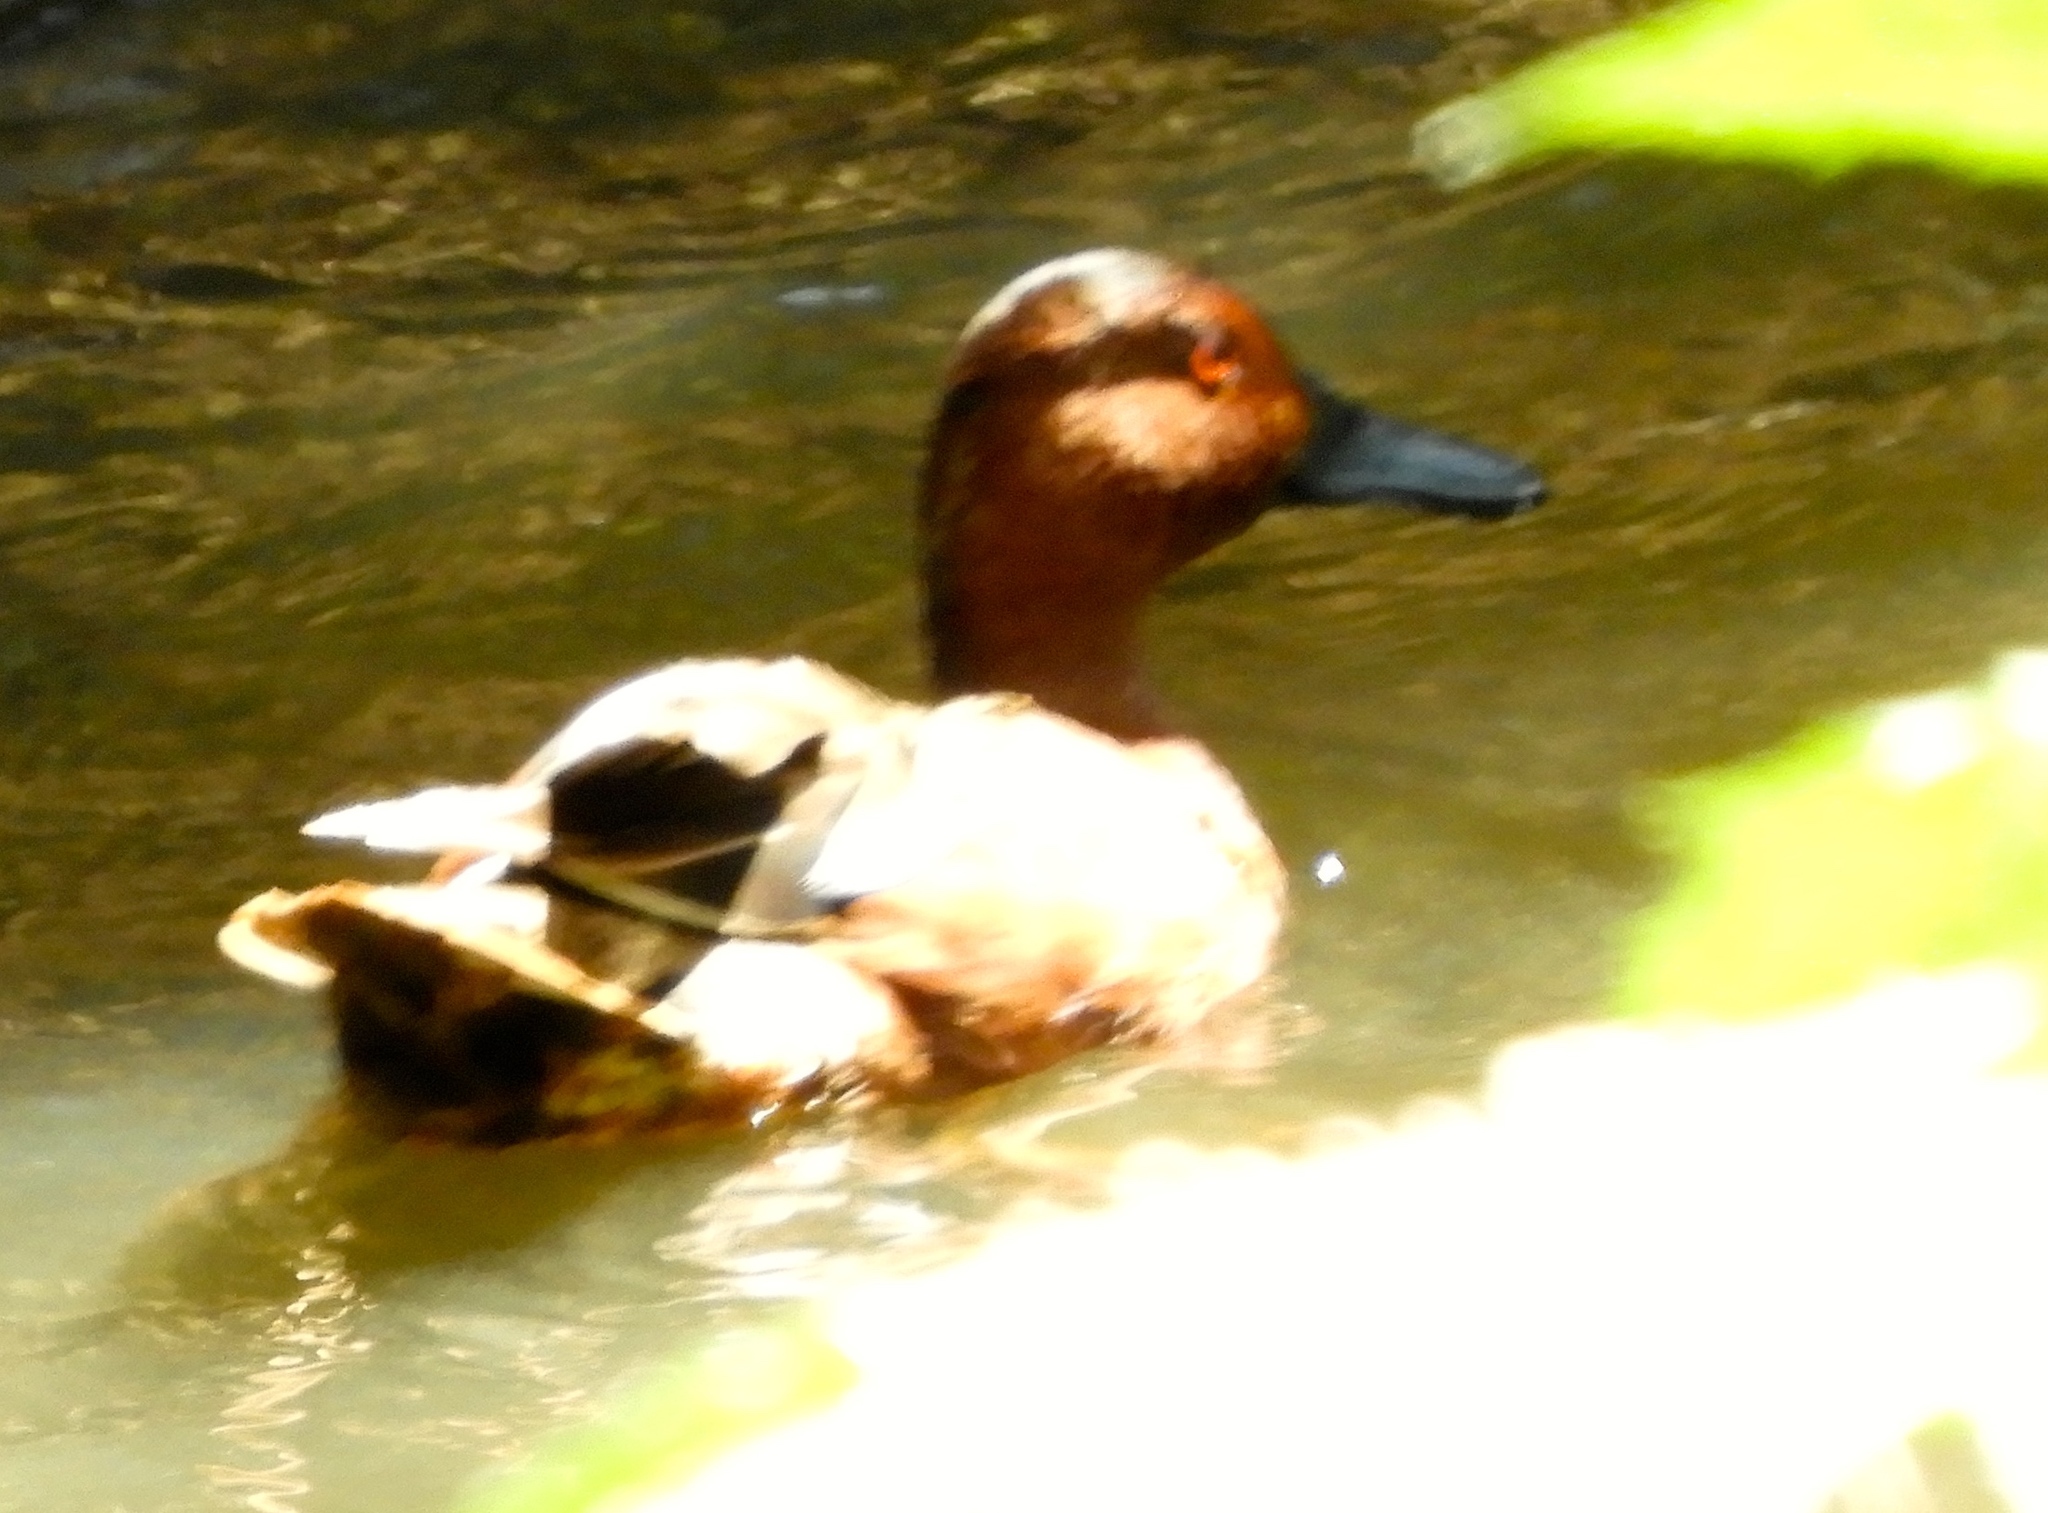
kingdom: Animalia
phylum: Chordata
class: Aves
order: Anseriformes
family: Anatidae
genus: Spatula
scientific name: Spatula cyanoptera
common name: Cinnamon teal
